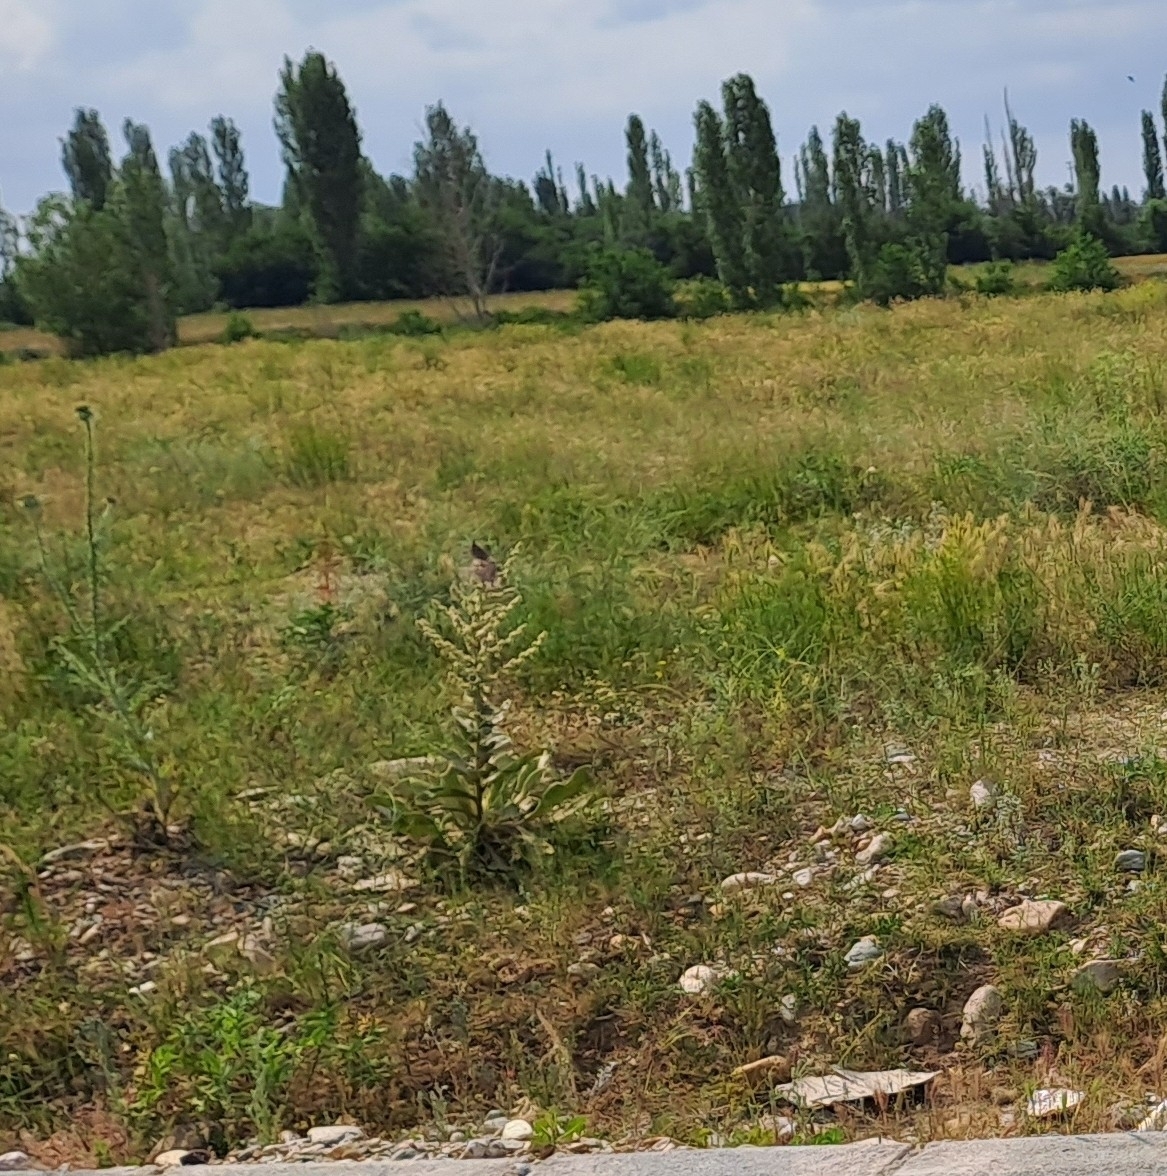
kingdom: Animalia
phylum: Chordata
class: Aves
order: Passeriformes
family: Alaudidae
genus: Galerida
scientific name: Galerida cristata
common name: Crested lark
